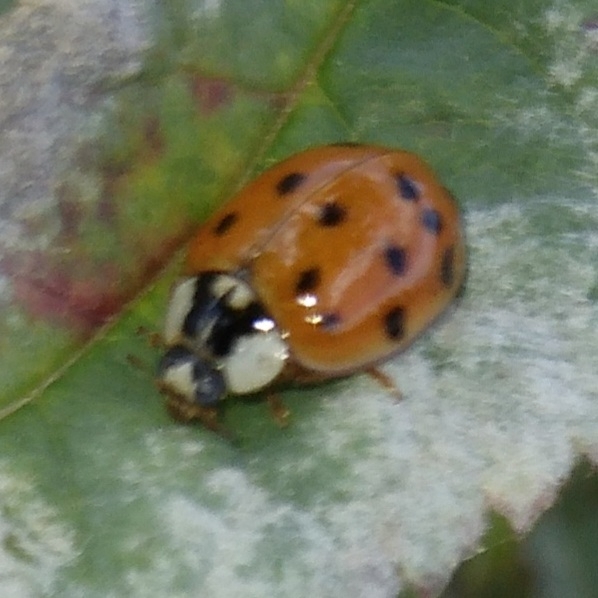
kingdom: Animalia
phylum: Arthropoda
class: Insecta
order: Coleoptera
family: Coccinellidae
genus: Harmonia
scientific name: Harmonia axyridis
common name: Harlequin ladybird
